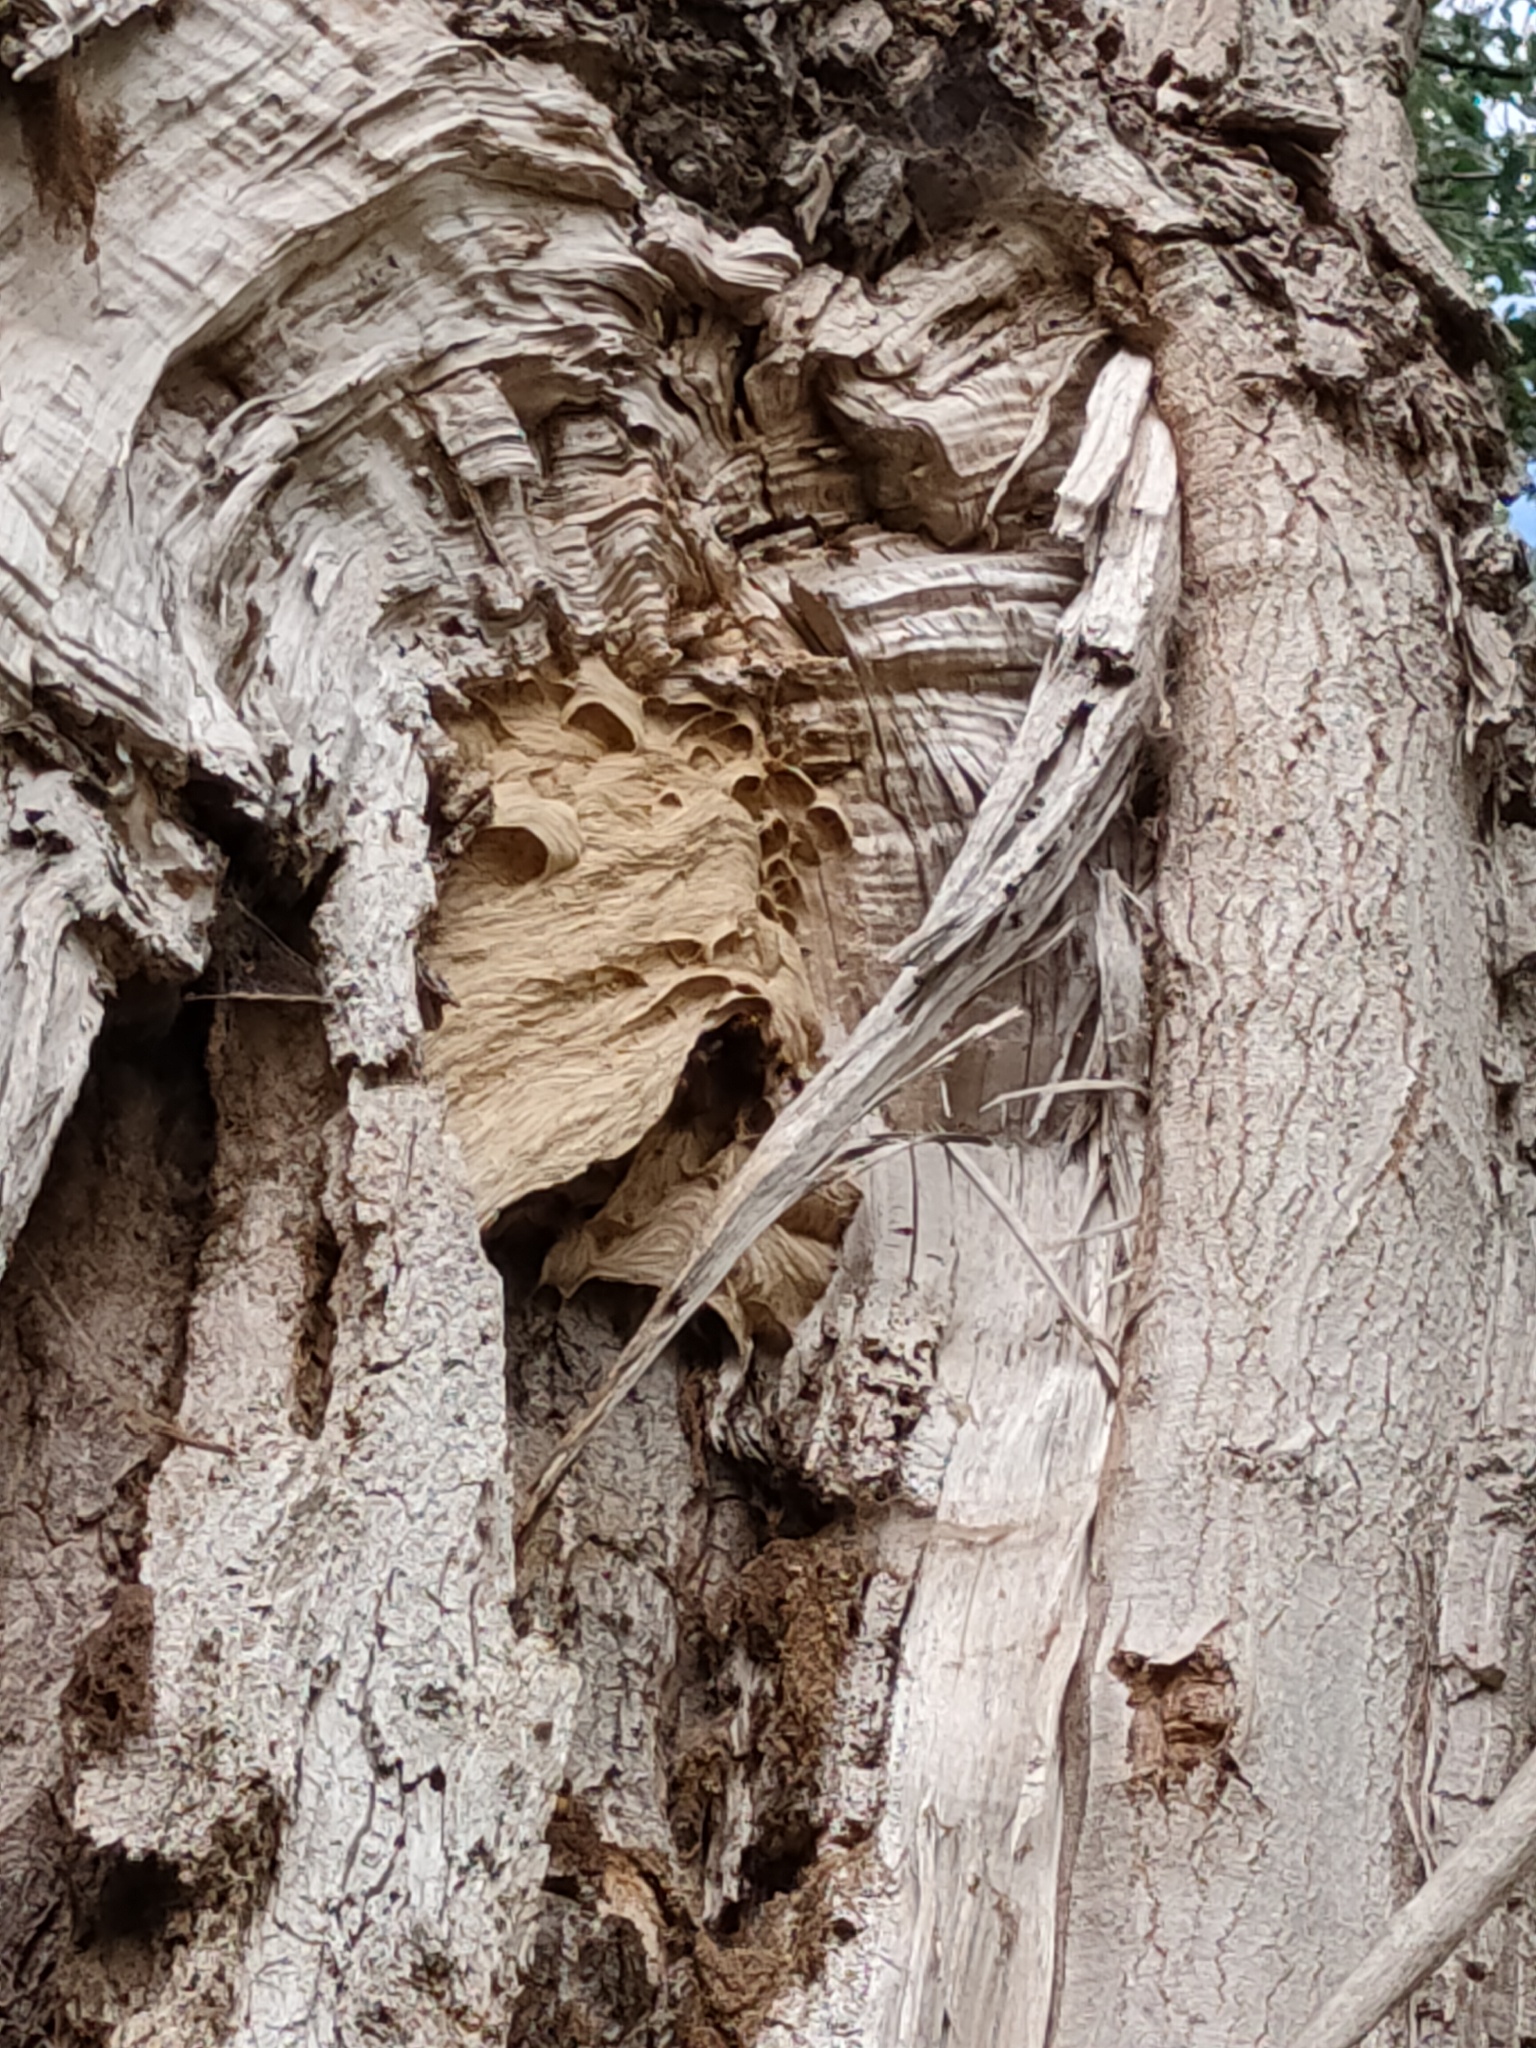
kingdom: Animalia
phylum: Arthropoda
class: Insecta
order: Hymenoptera
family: Vespidae
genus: Vespa
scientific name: Vespa crabro
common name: Hornet
